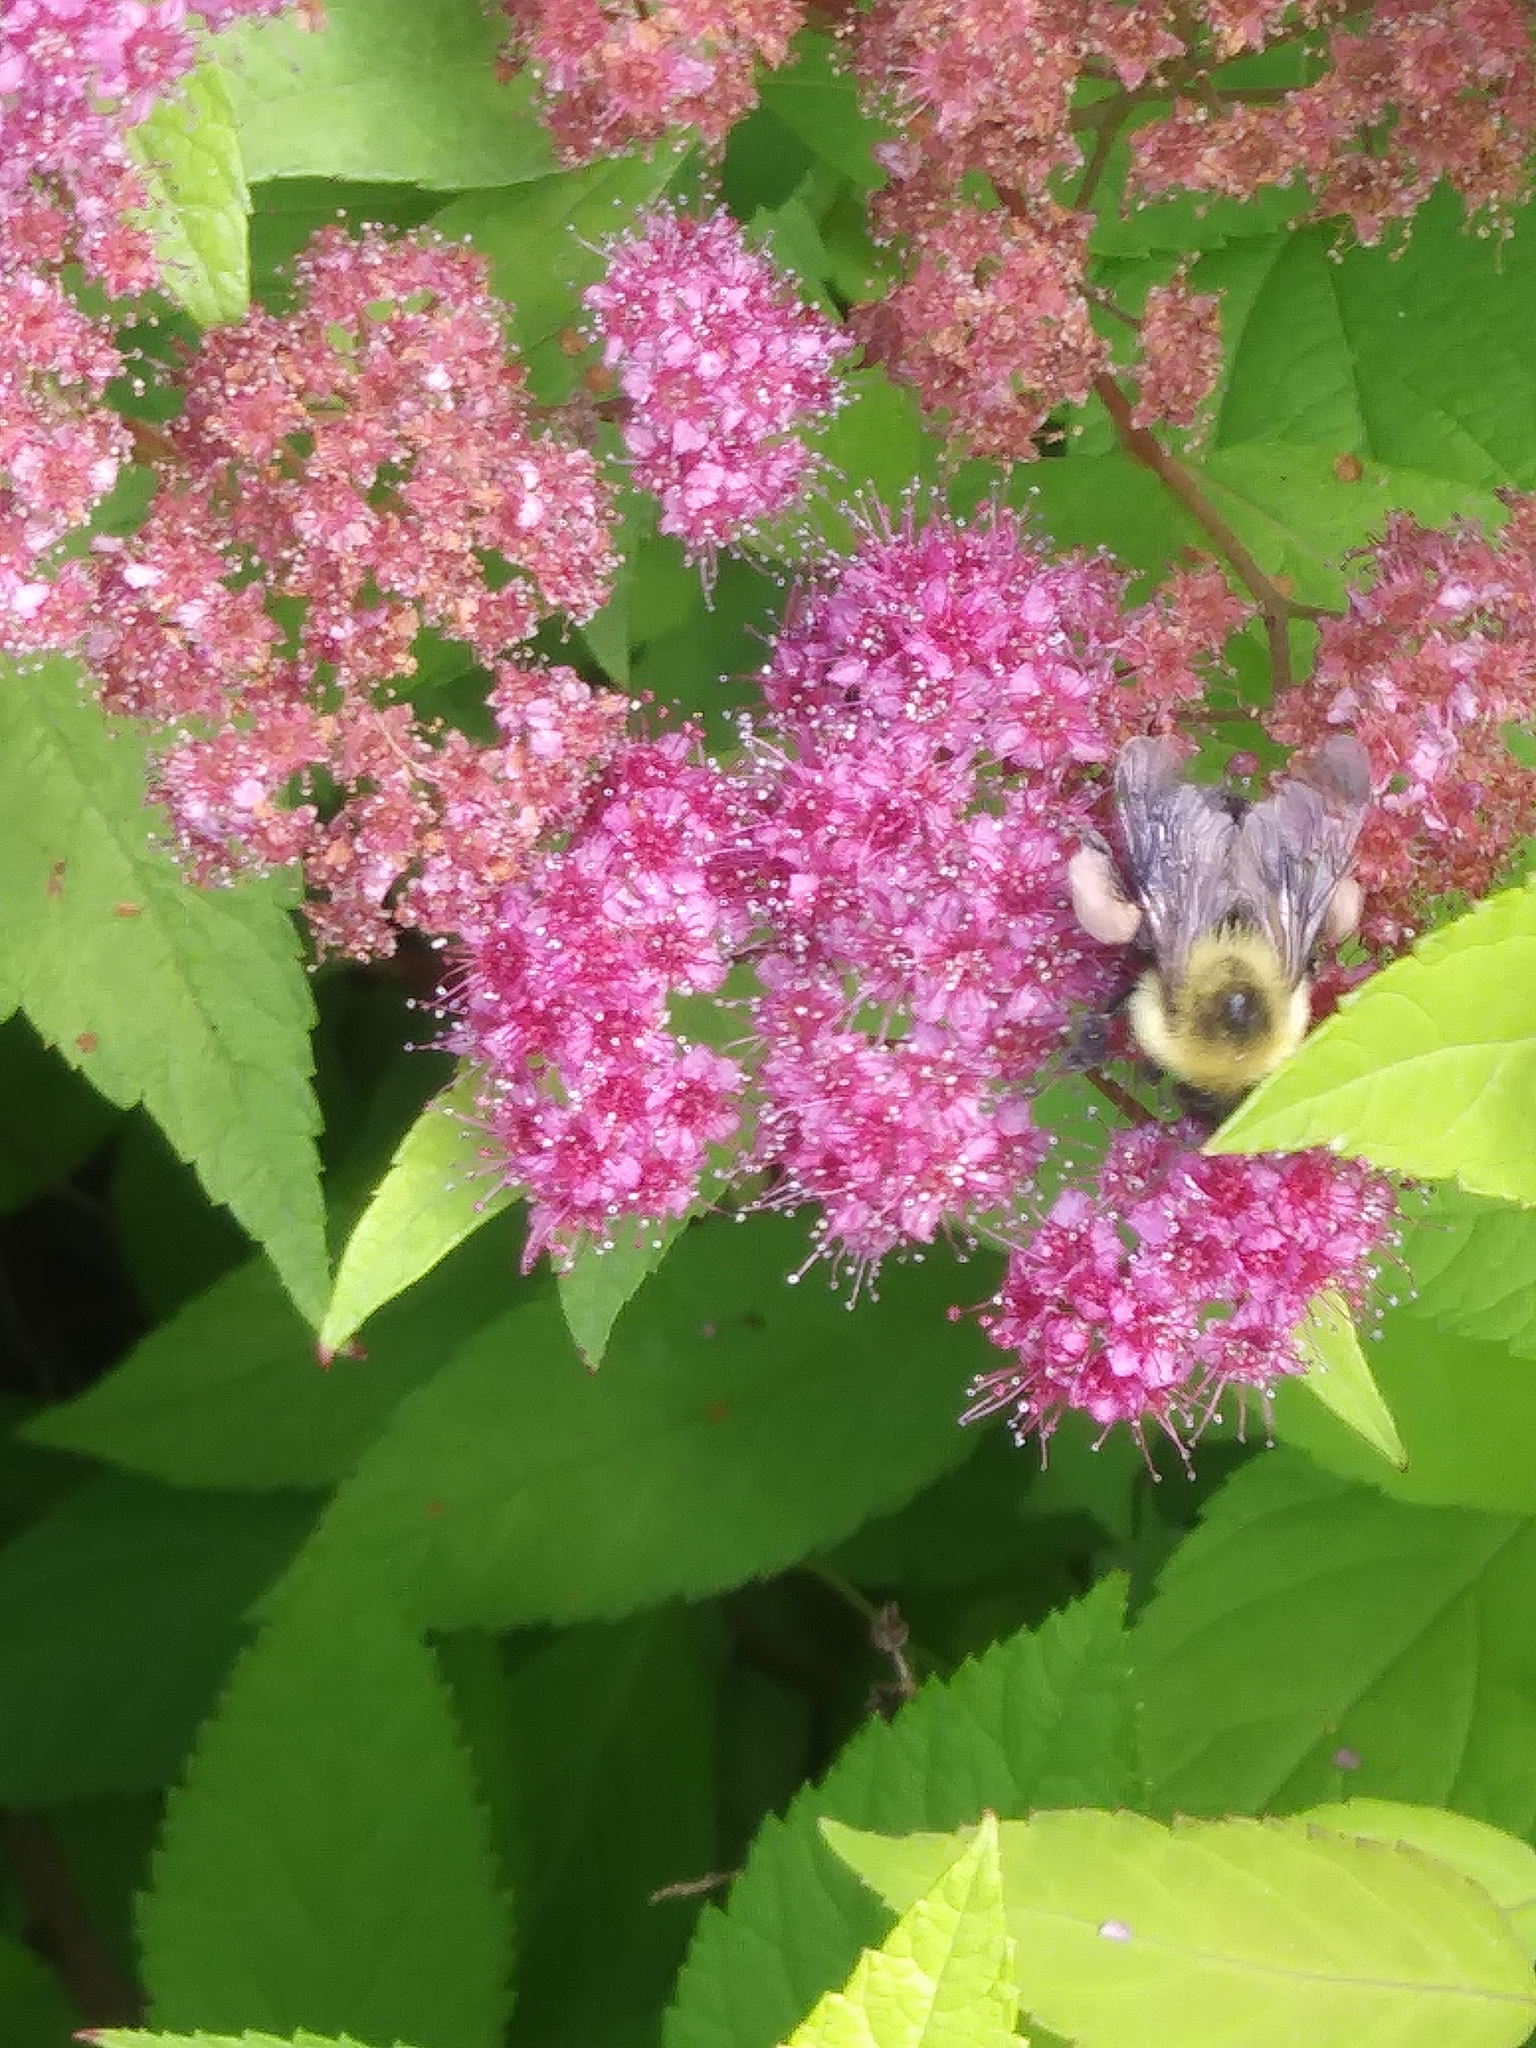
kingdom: Animalia
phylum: Arthropoda
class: Insecta
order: Hymenoptera
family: Apidae
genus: Bombus
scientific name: Bombus bimaculatus
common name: Two-spotted bumble bee
